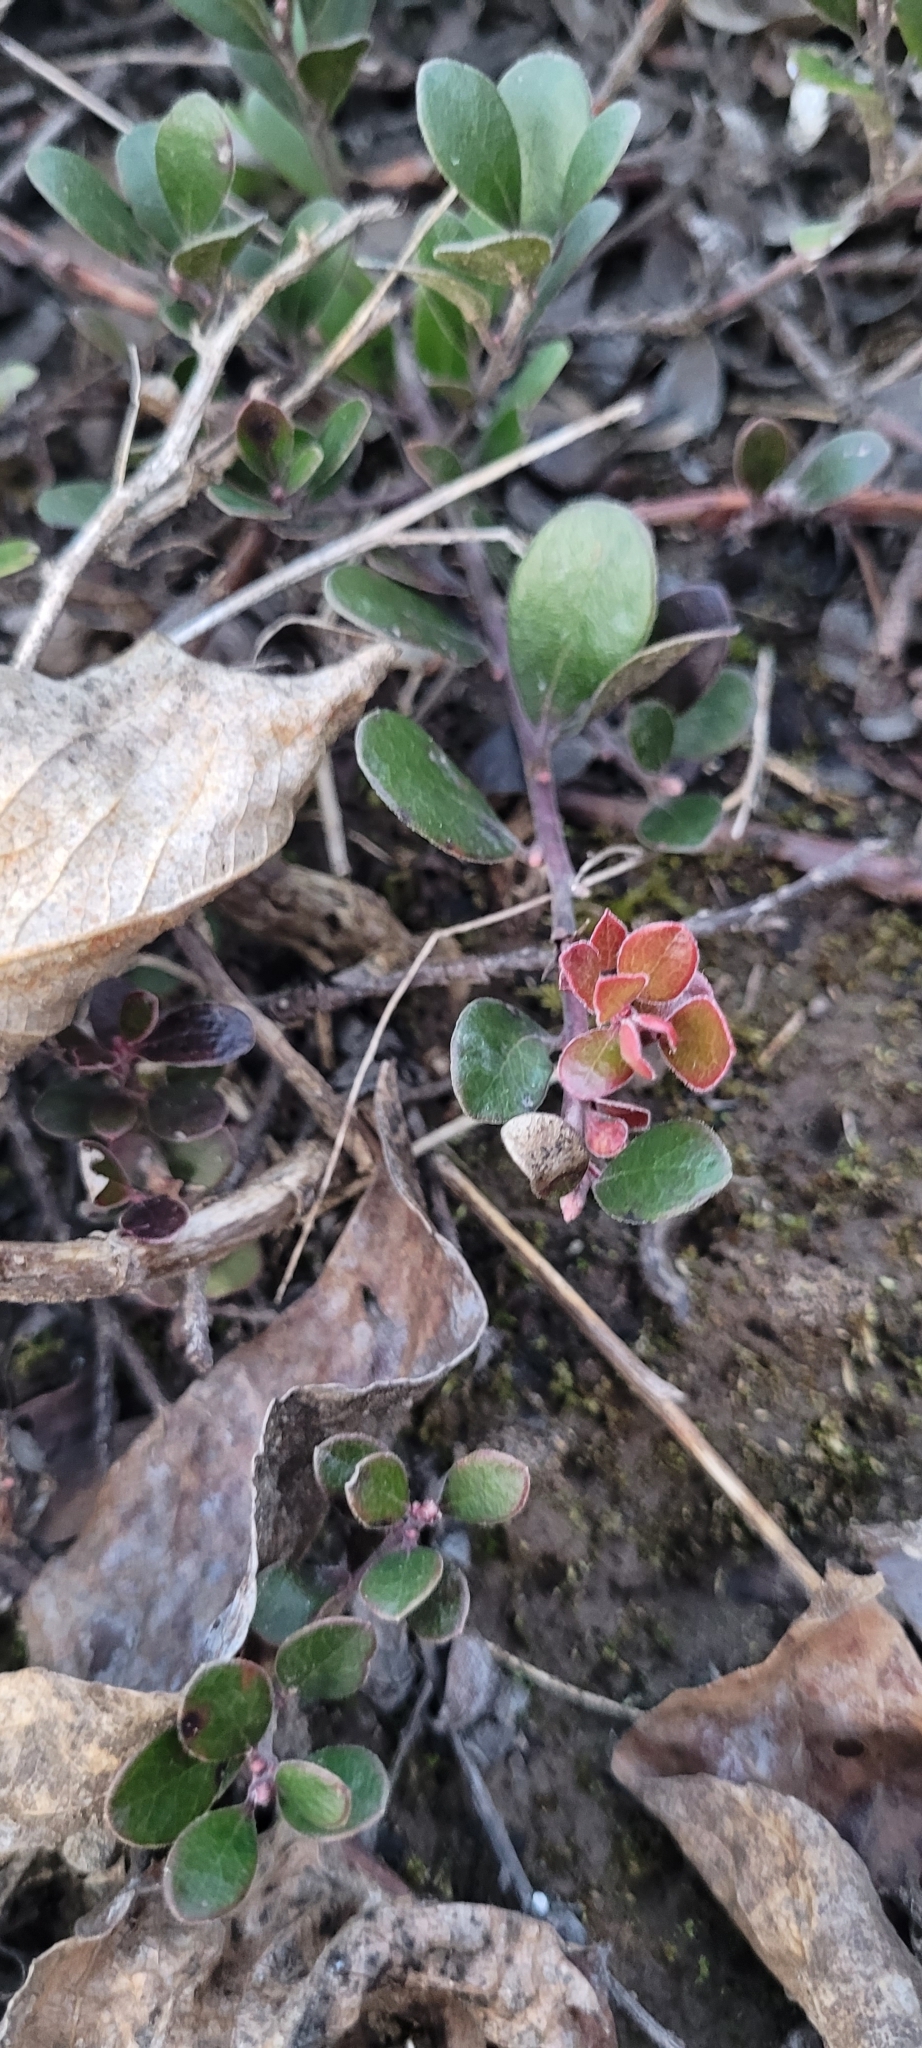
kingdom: Plantae
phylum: Tracheophyta
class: Magnoliopsida
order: Ericales
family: Ericaceae
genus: Arctostaphylos
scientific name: Arctostaphylos uva-ursi
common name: Bearberry
